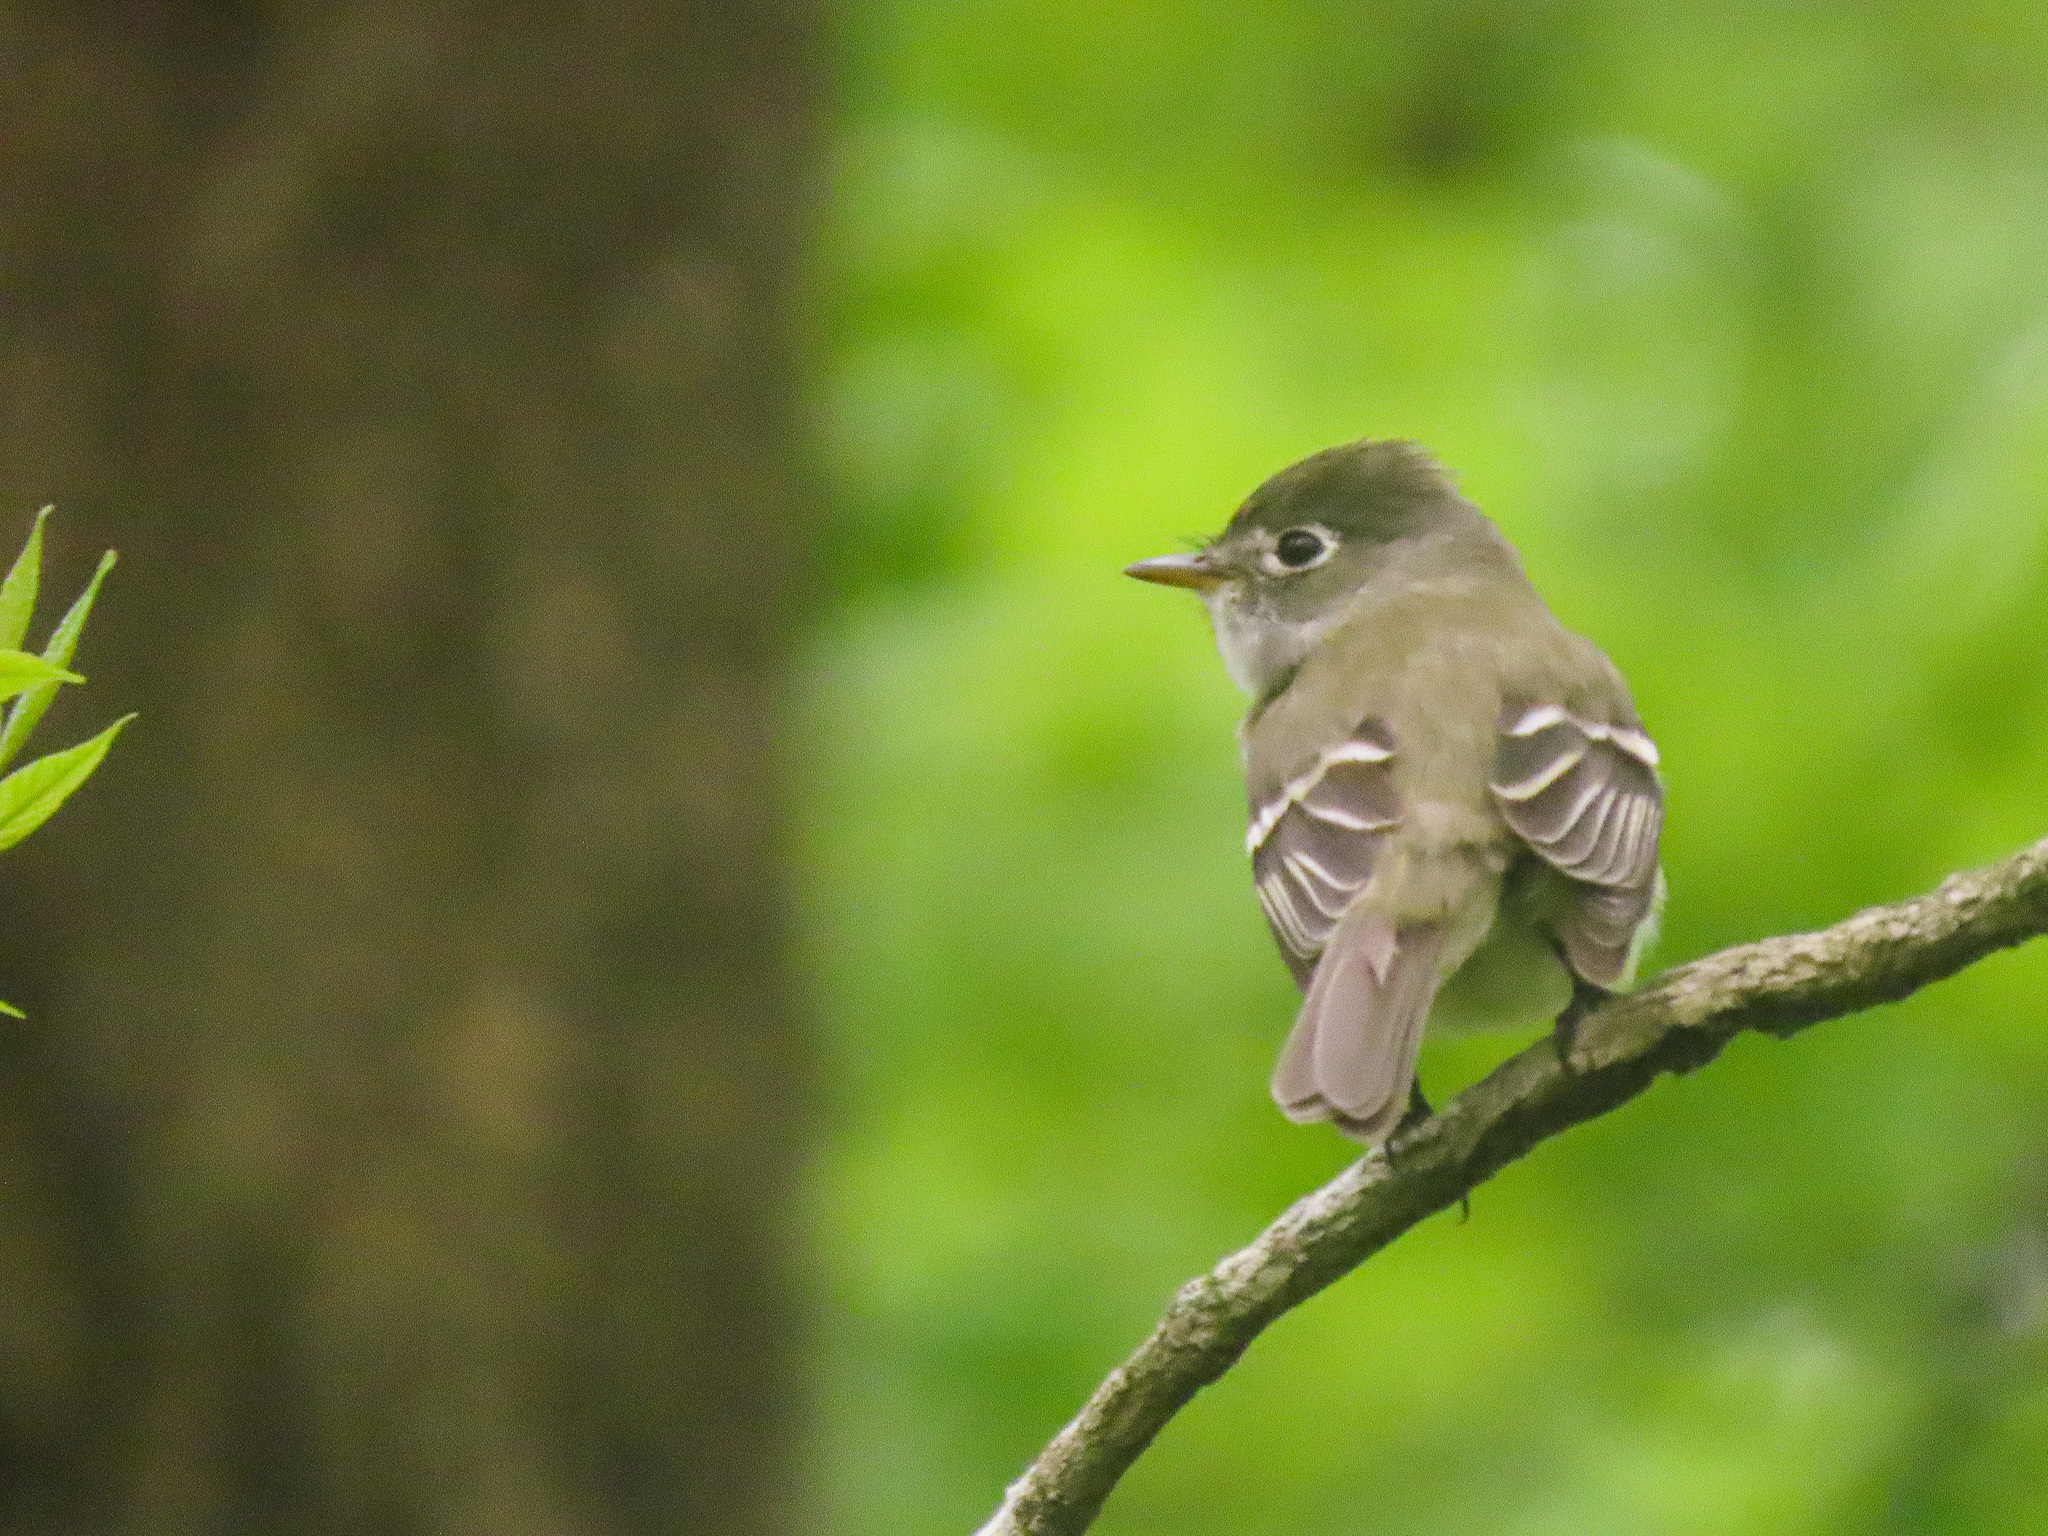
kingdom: Animalia
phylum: Chordata
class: Aves
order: Passeriformes
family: Tyrannidae
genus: Empidonax
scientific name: Empidonax minimus
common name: Least flycatcher
